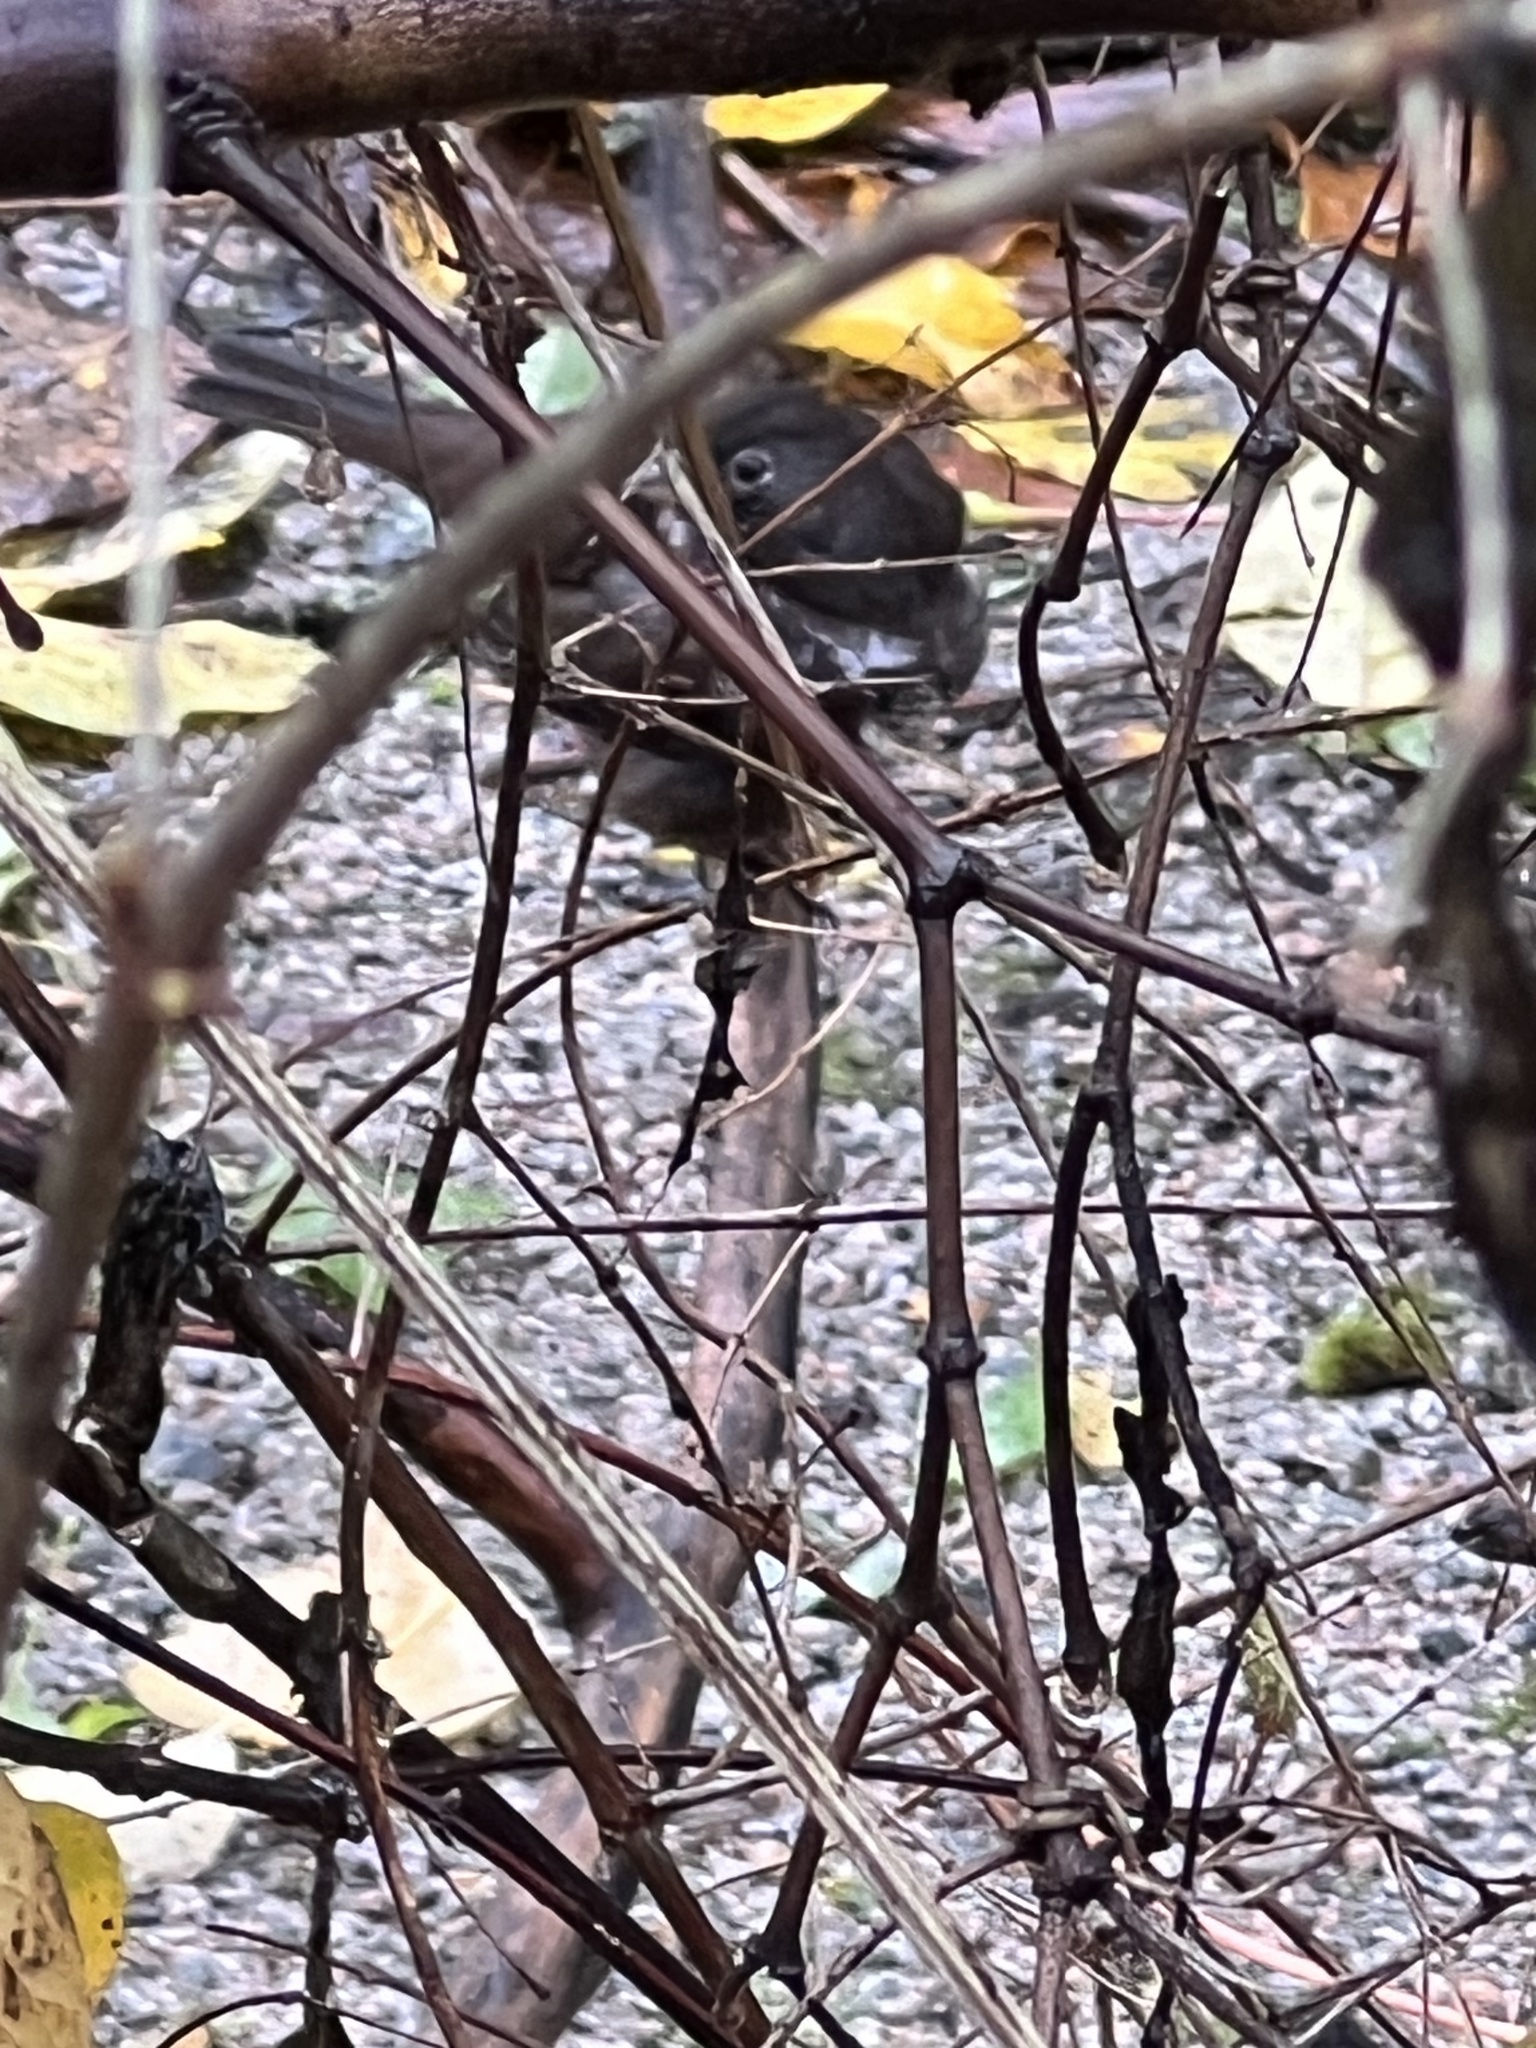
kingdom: Animalia
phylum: Chordata
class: Aves
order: Passeriformes
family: Passerellidae
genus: Passerella
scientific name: Passerella iliaca
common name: Fox sparrow
